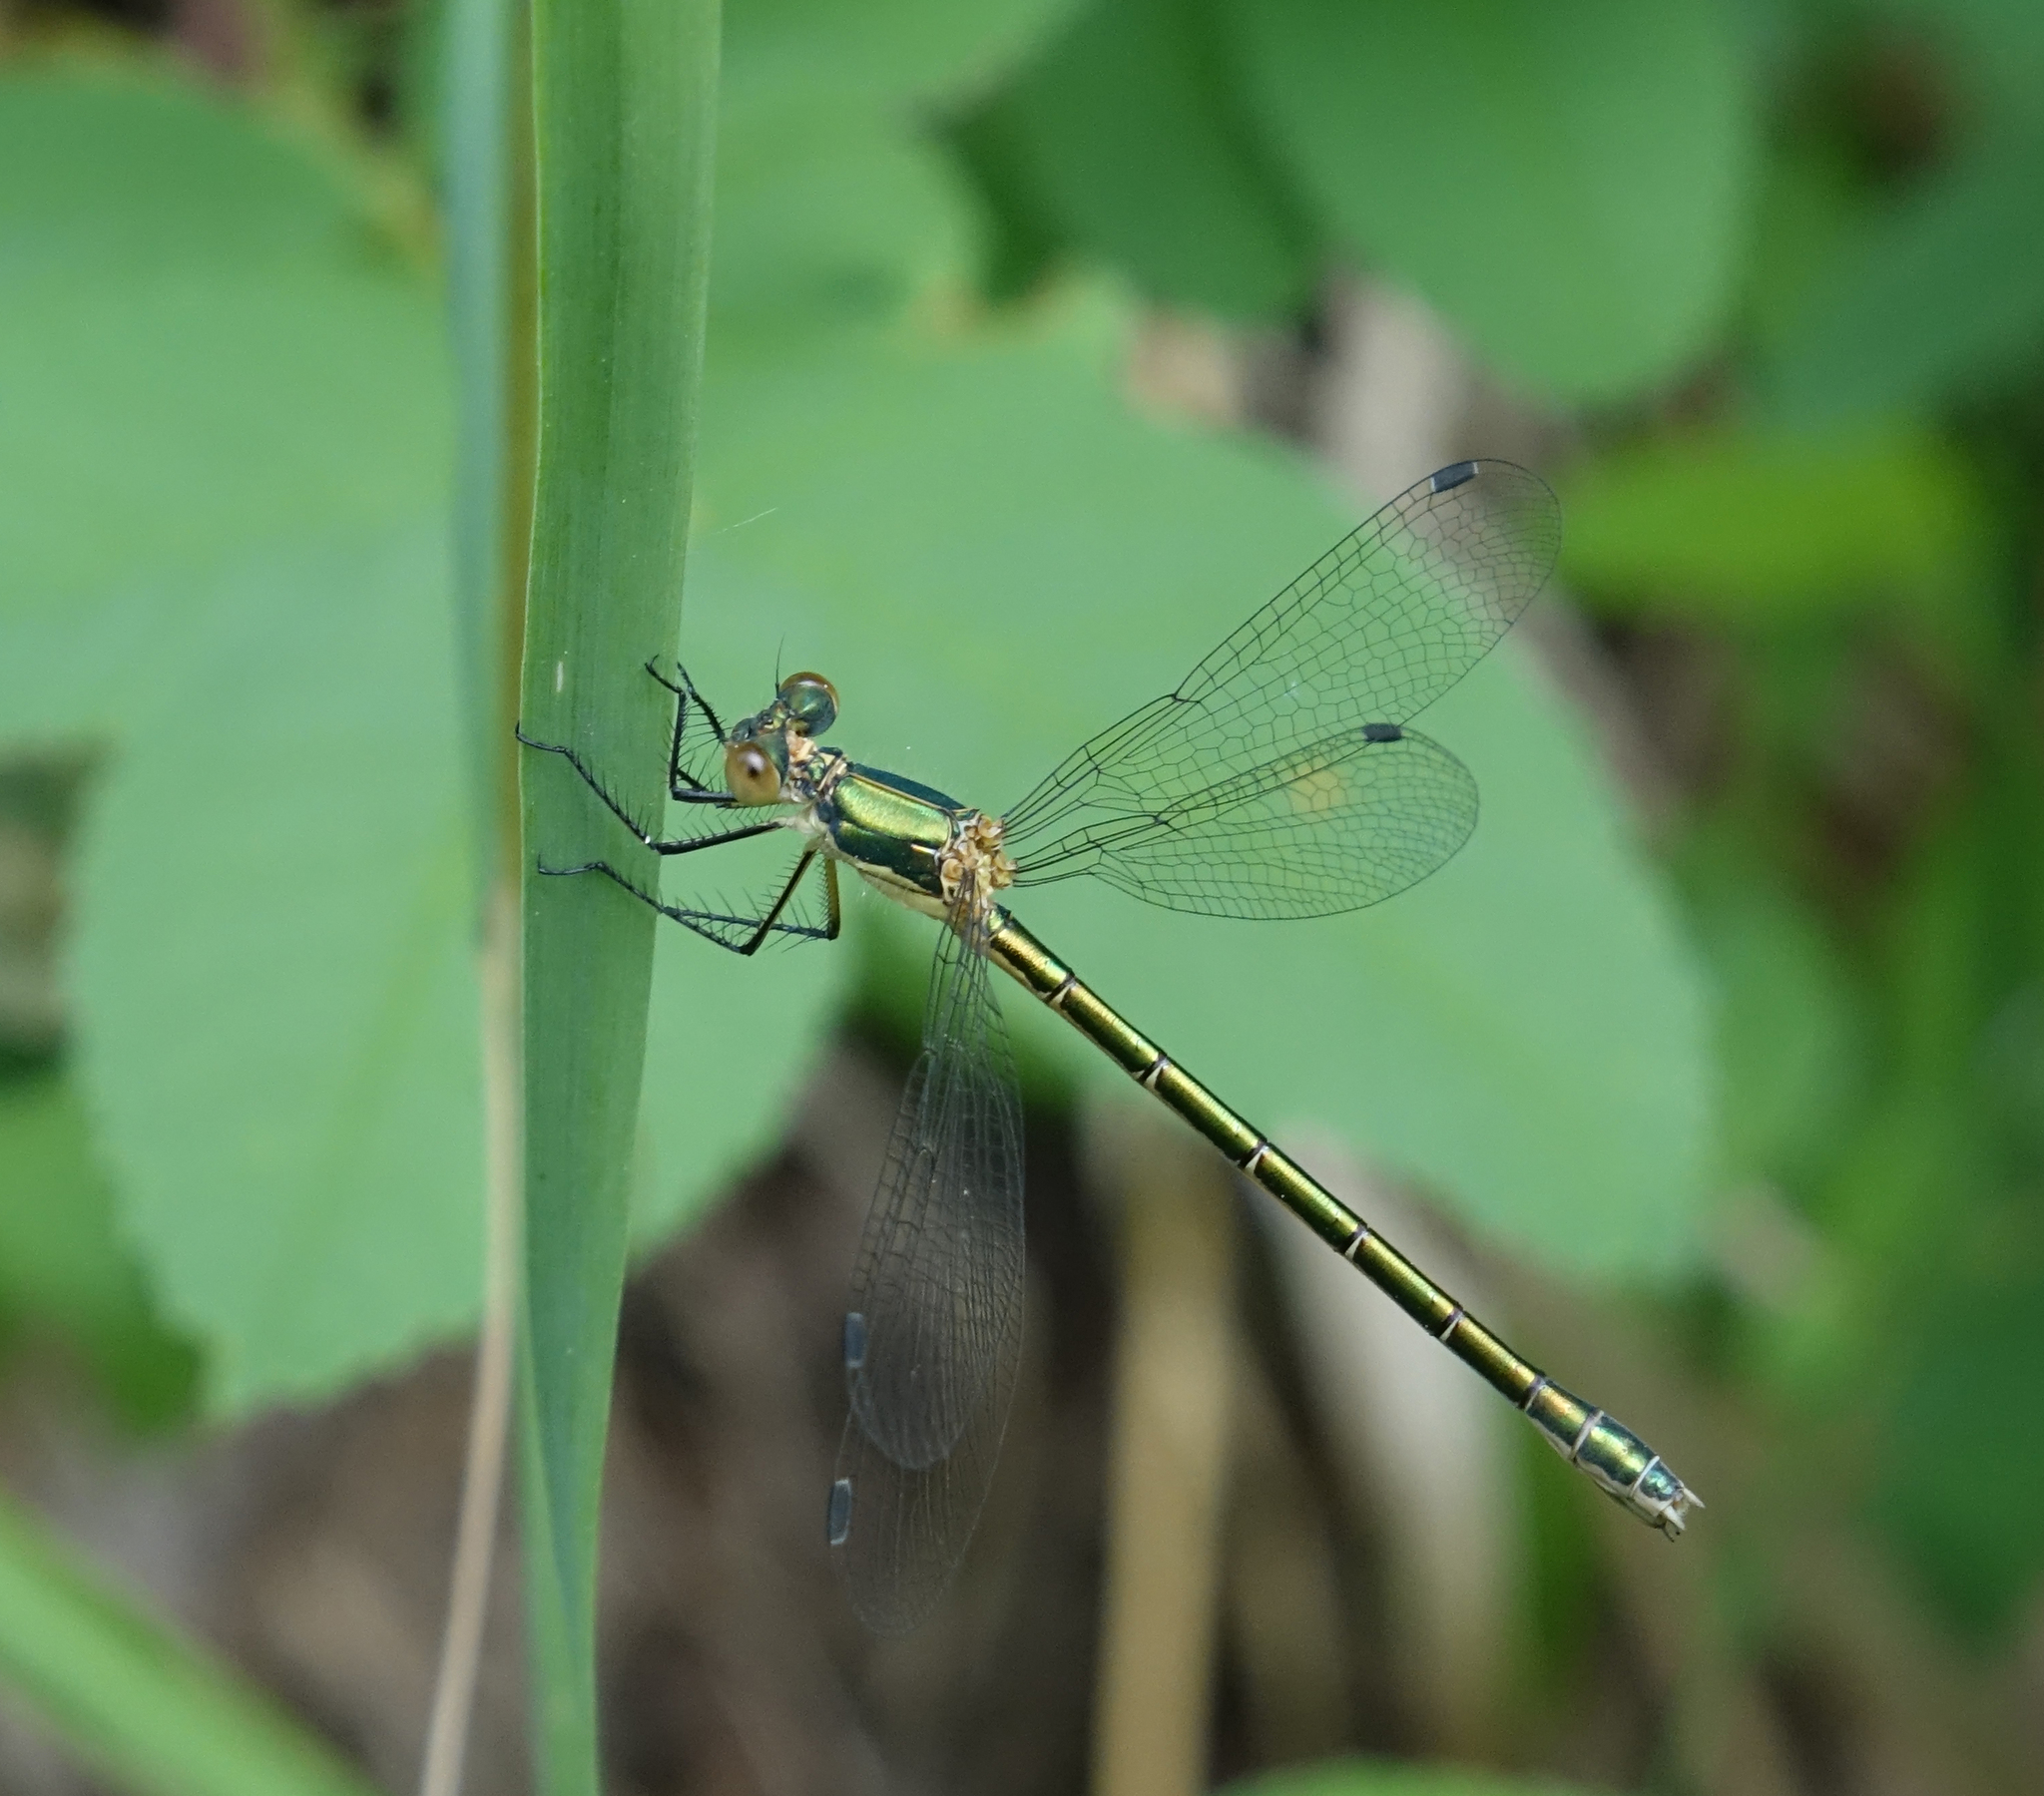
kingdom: Animalia
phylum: Arthropoda
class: Insecta
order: Odonata
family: Lestidae
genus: Lestes
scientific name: Lestes dryas
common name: Scarce emerald damselfly
